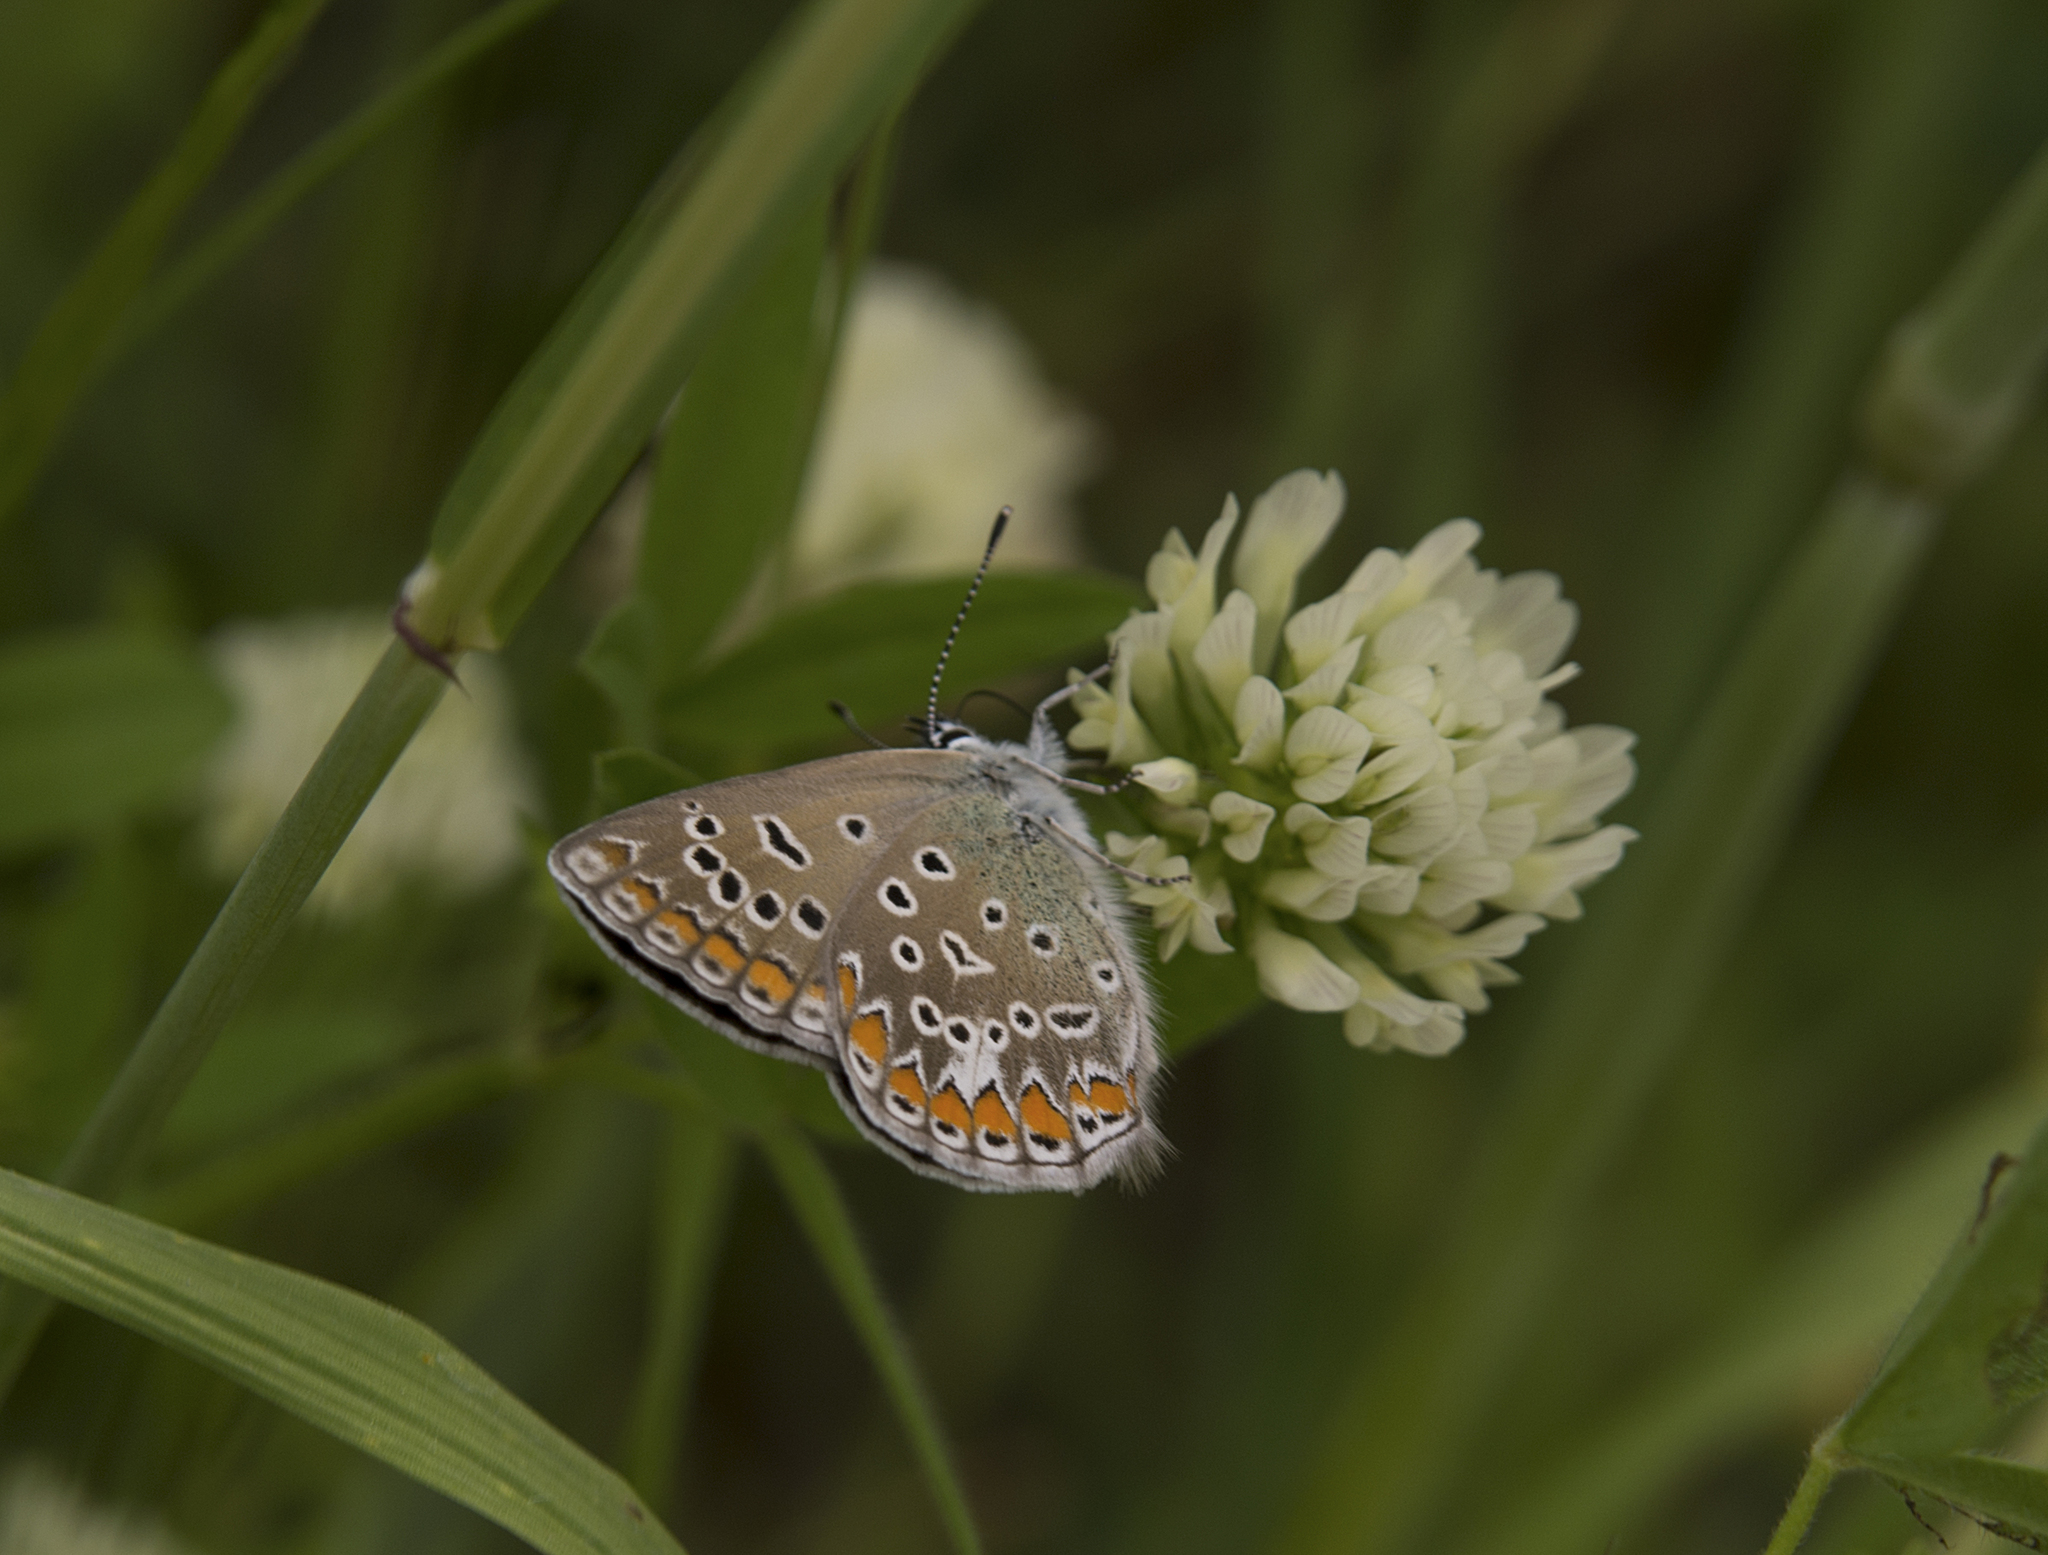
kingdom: Animalia
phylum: Arthropoda
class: Insecta
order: Lepidoptera
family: Lycaenidae
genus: Polyommatus
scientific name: Polyommatus icarus
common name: Common blue
